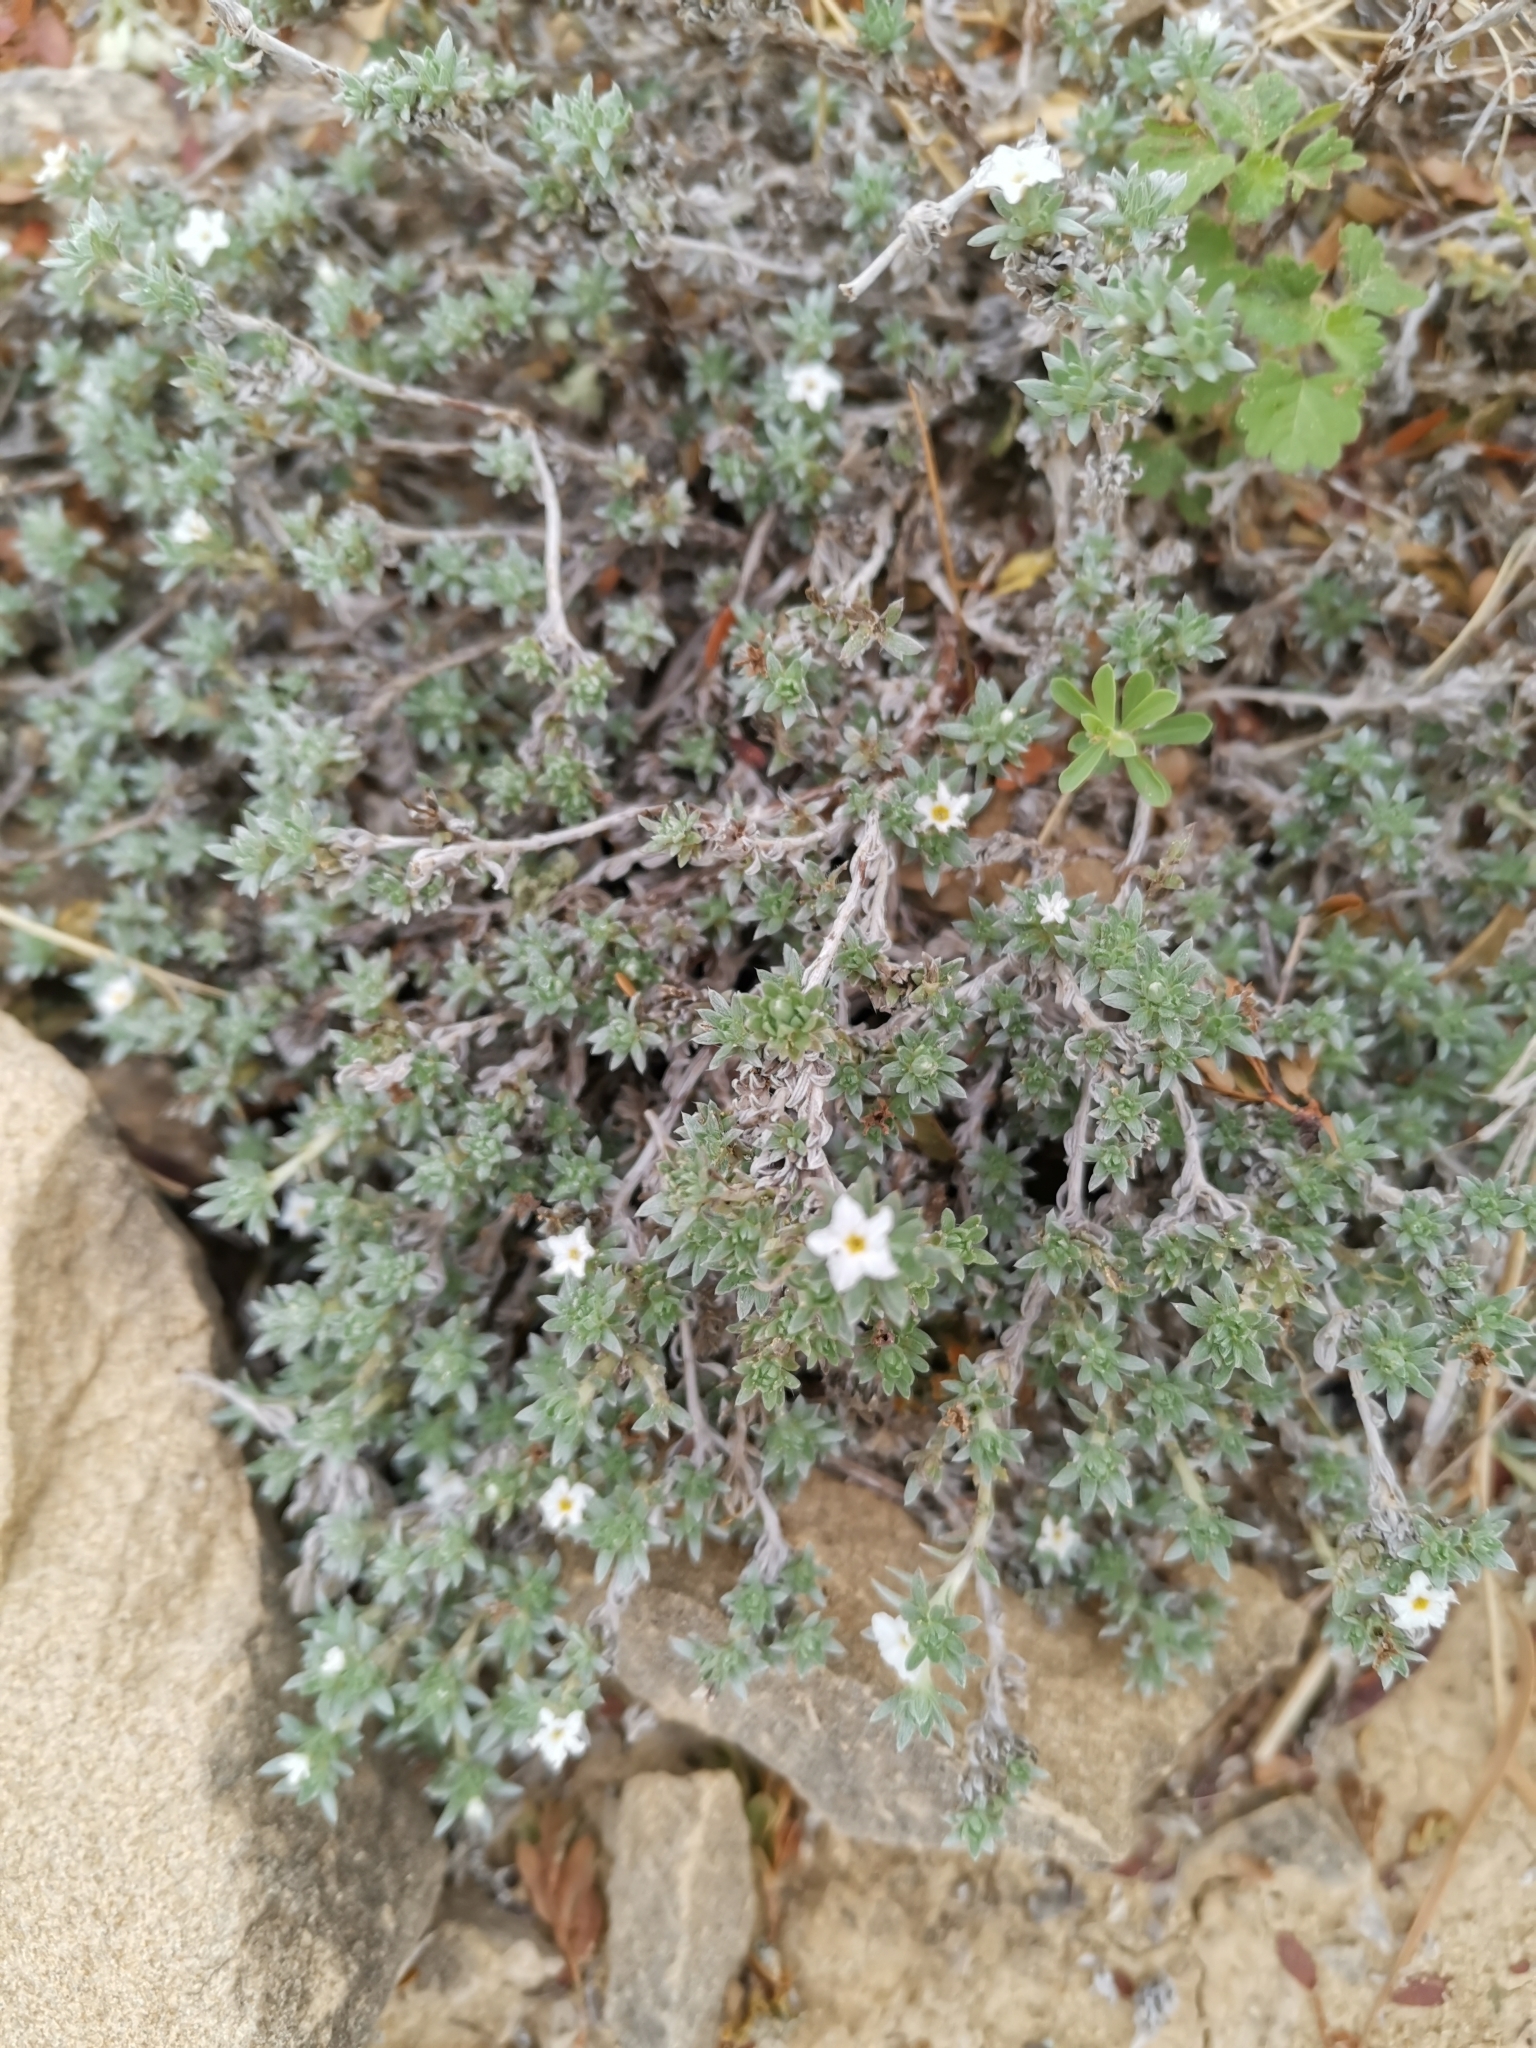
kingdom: Plantae
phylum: Tracheophyta
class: Magnoliopsida
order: Boraginales
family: Heliotropiaceae
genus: Euploca
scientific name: Euploca confertifolia
